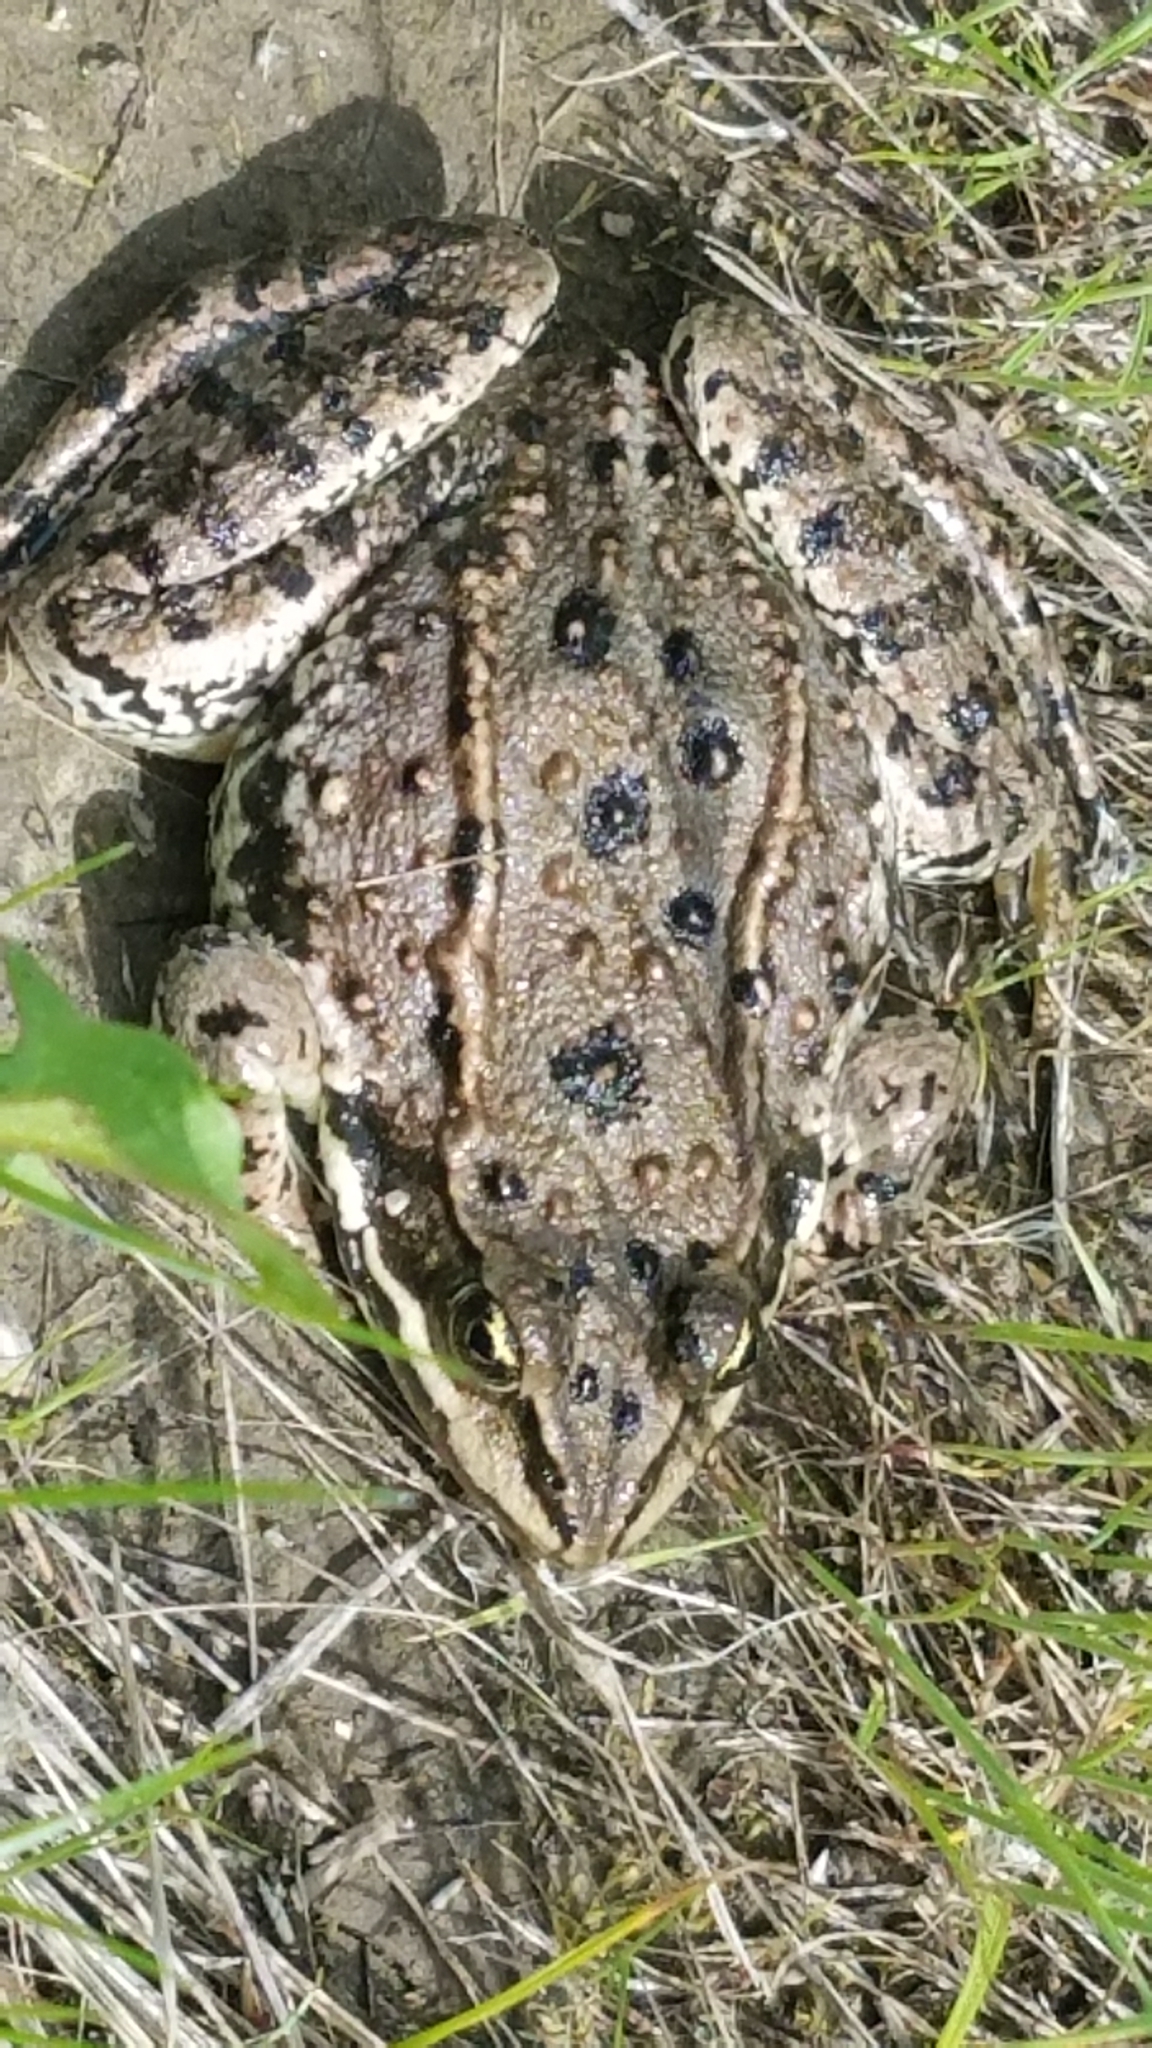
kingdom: Animalia
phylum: Chordata
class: Amphibia
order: Anura
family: Ranidae
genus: Rana
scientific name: Rana luteiventris
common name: Columbia spotted frog
